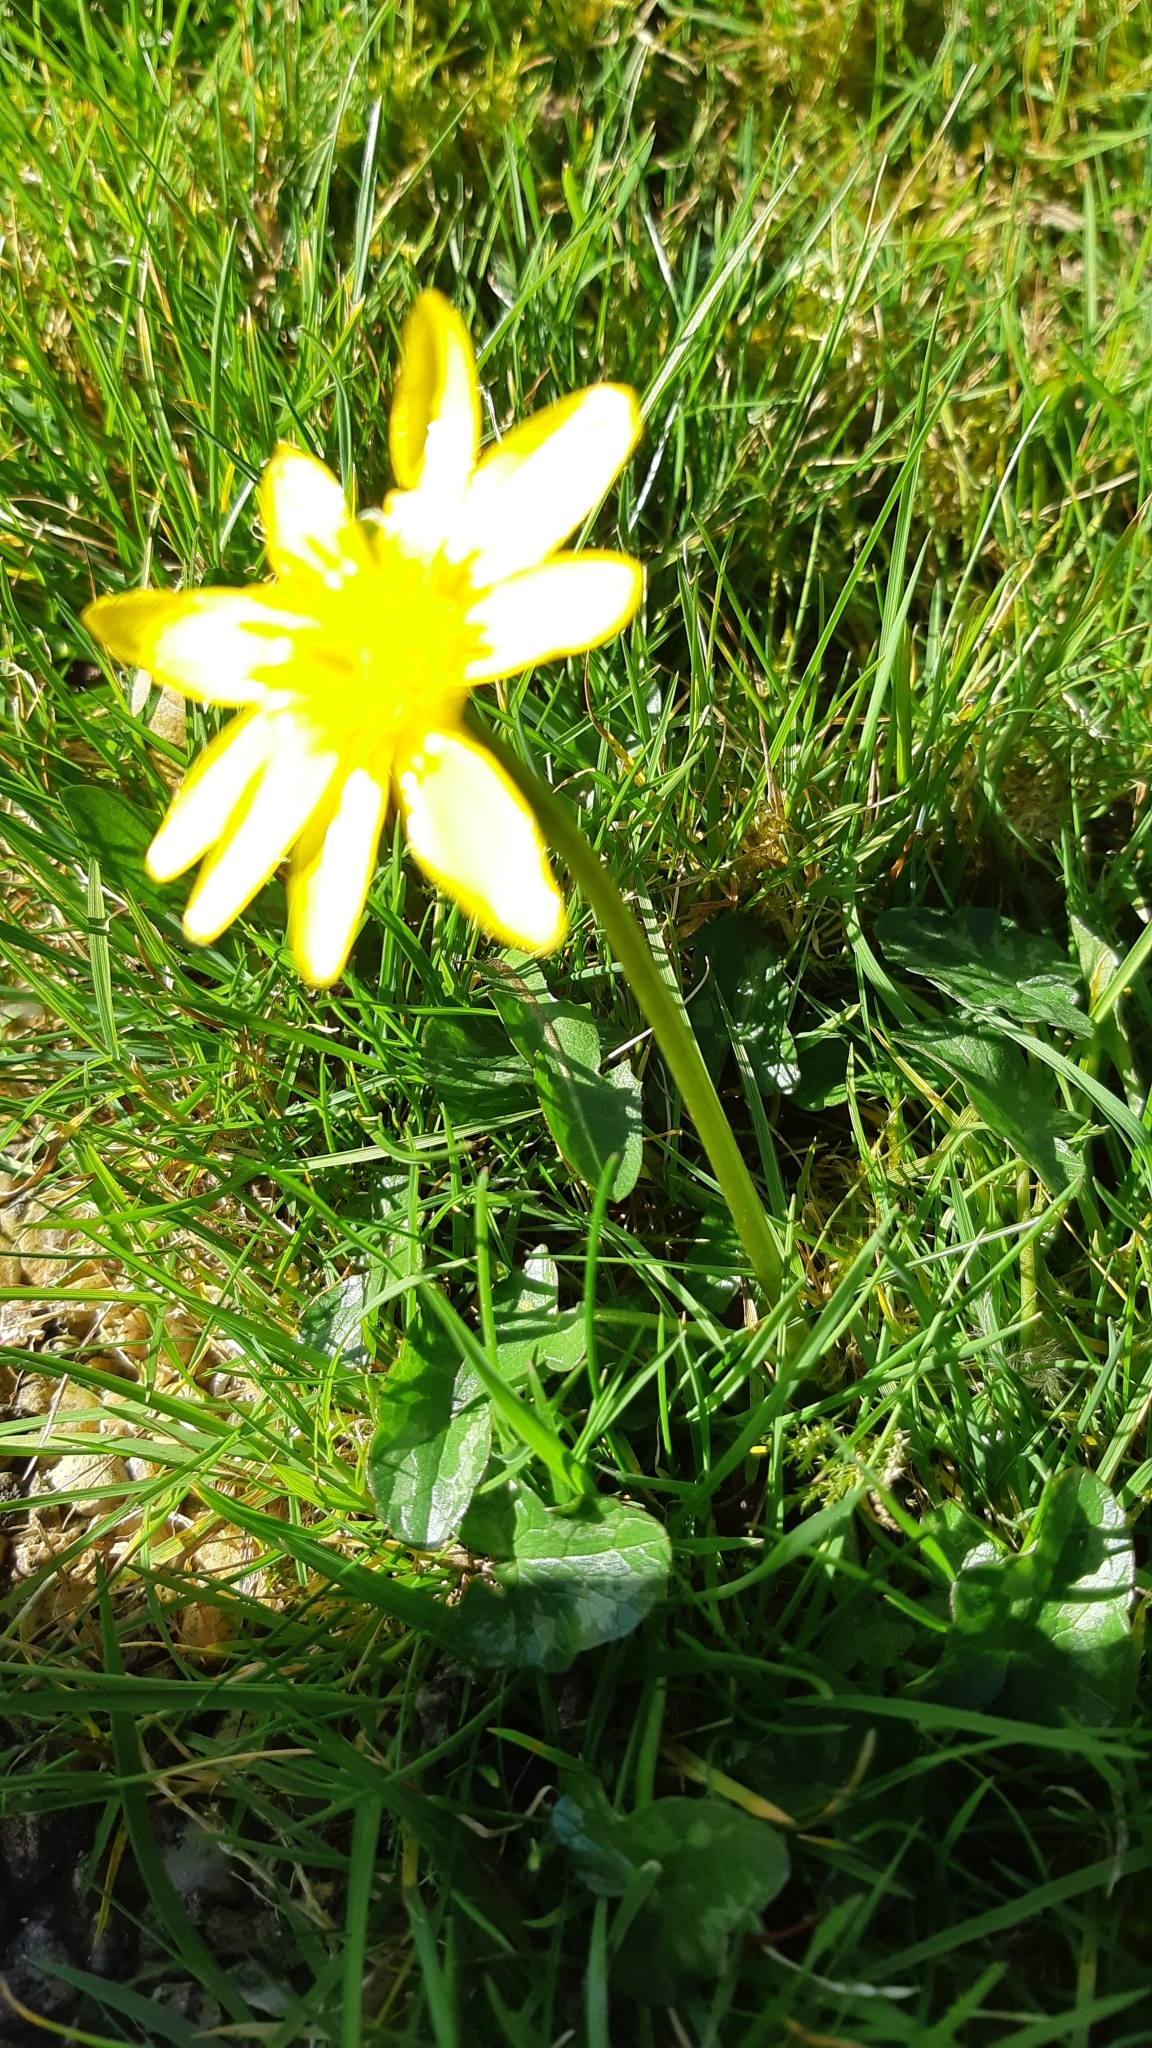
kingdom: Plantae
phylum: Tracheophyta
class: Magnoliopsida
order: Ranunculales
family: Ranunculaceae
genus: Ficaria
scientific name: Ficaria verna
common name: Lesser celandine
